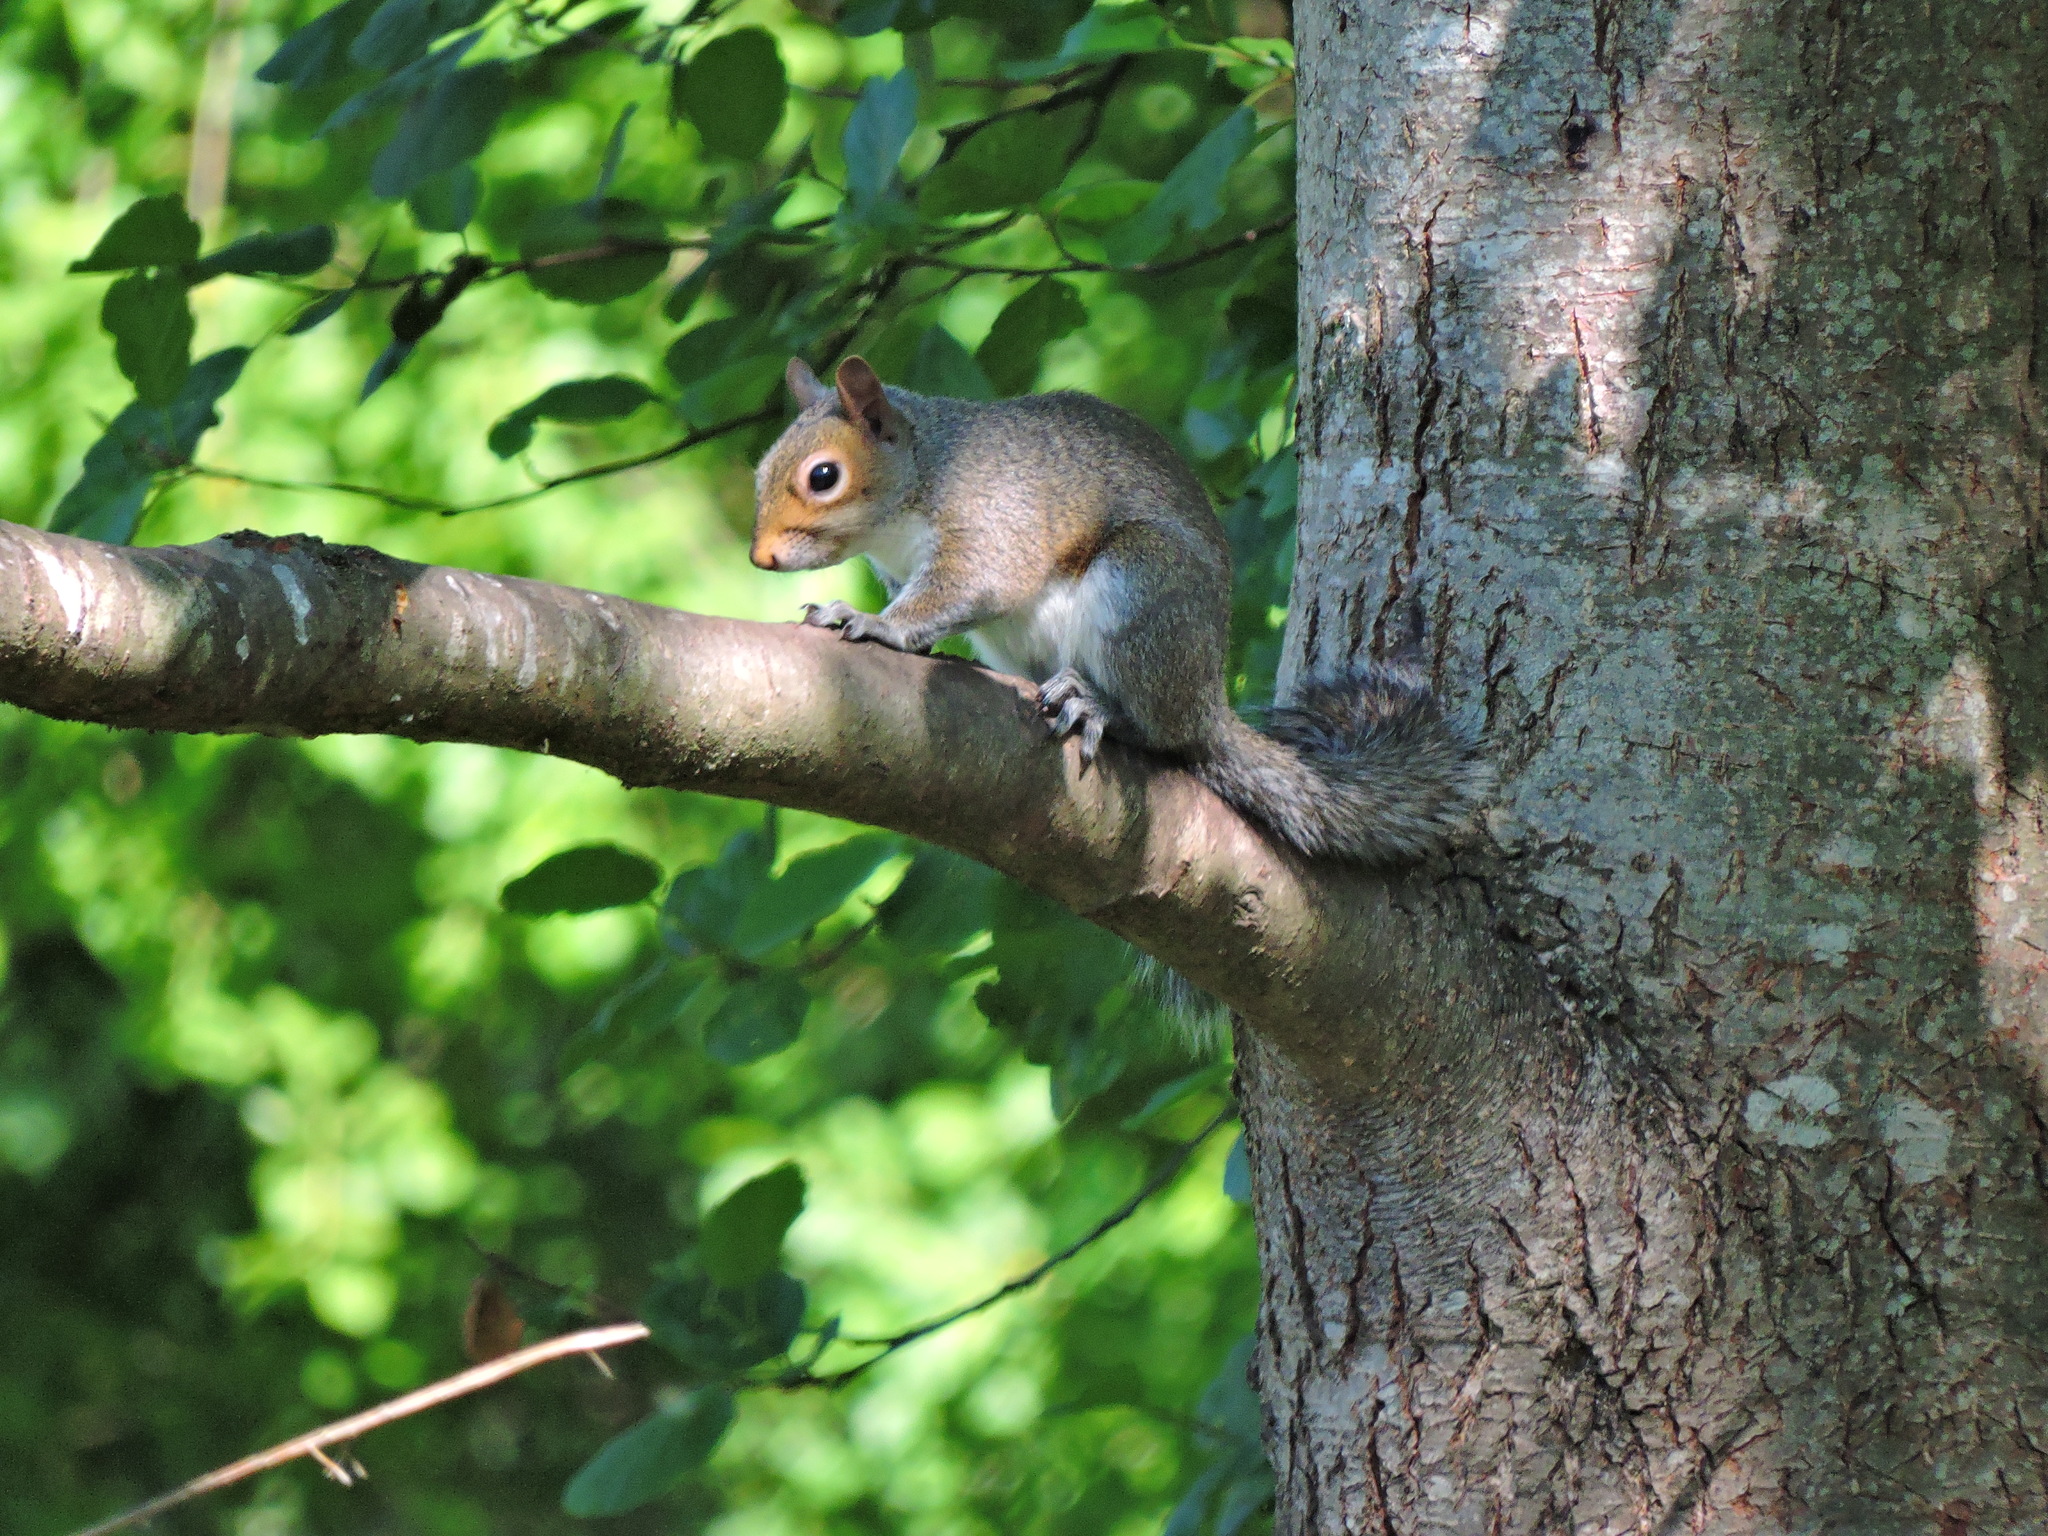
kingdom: Animalia
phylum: Chordata
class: Mammalia
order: Rodentia
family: Sciuridae
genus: Sciurus
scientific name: Sciurus carolinensis
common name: Eastern gray squirrel
